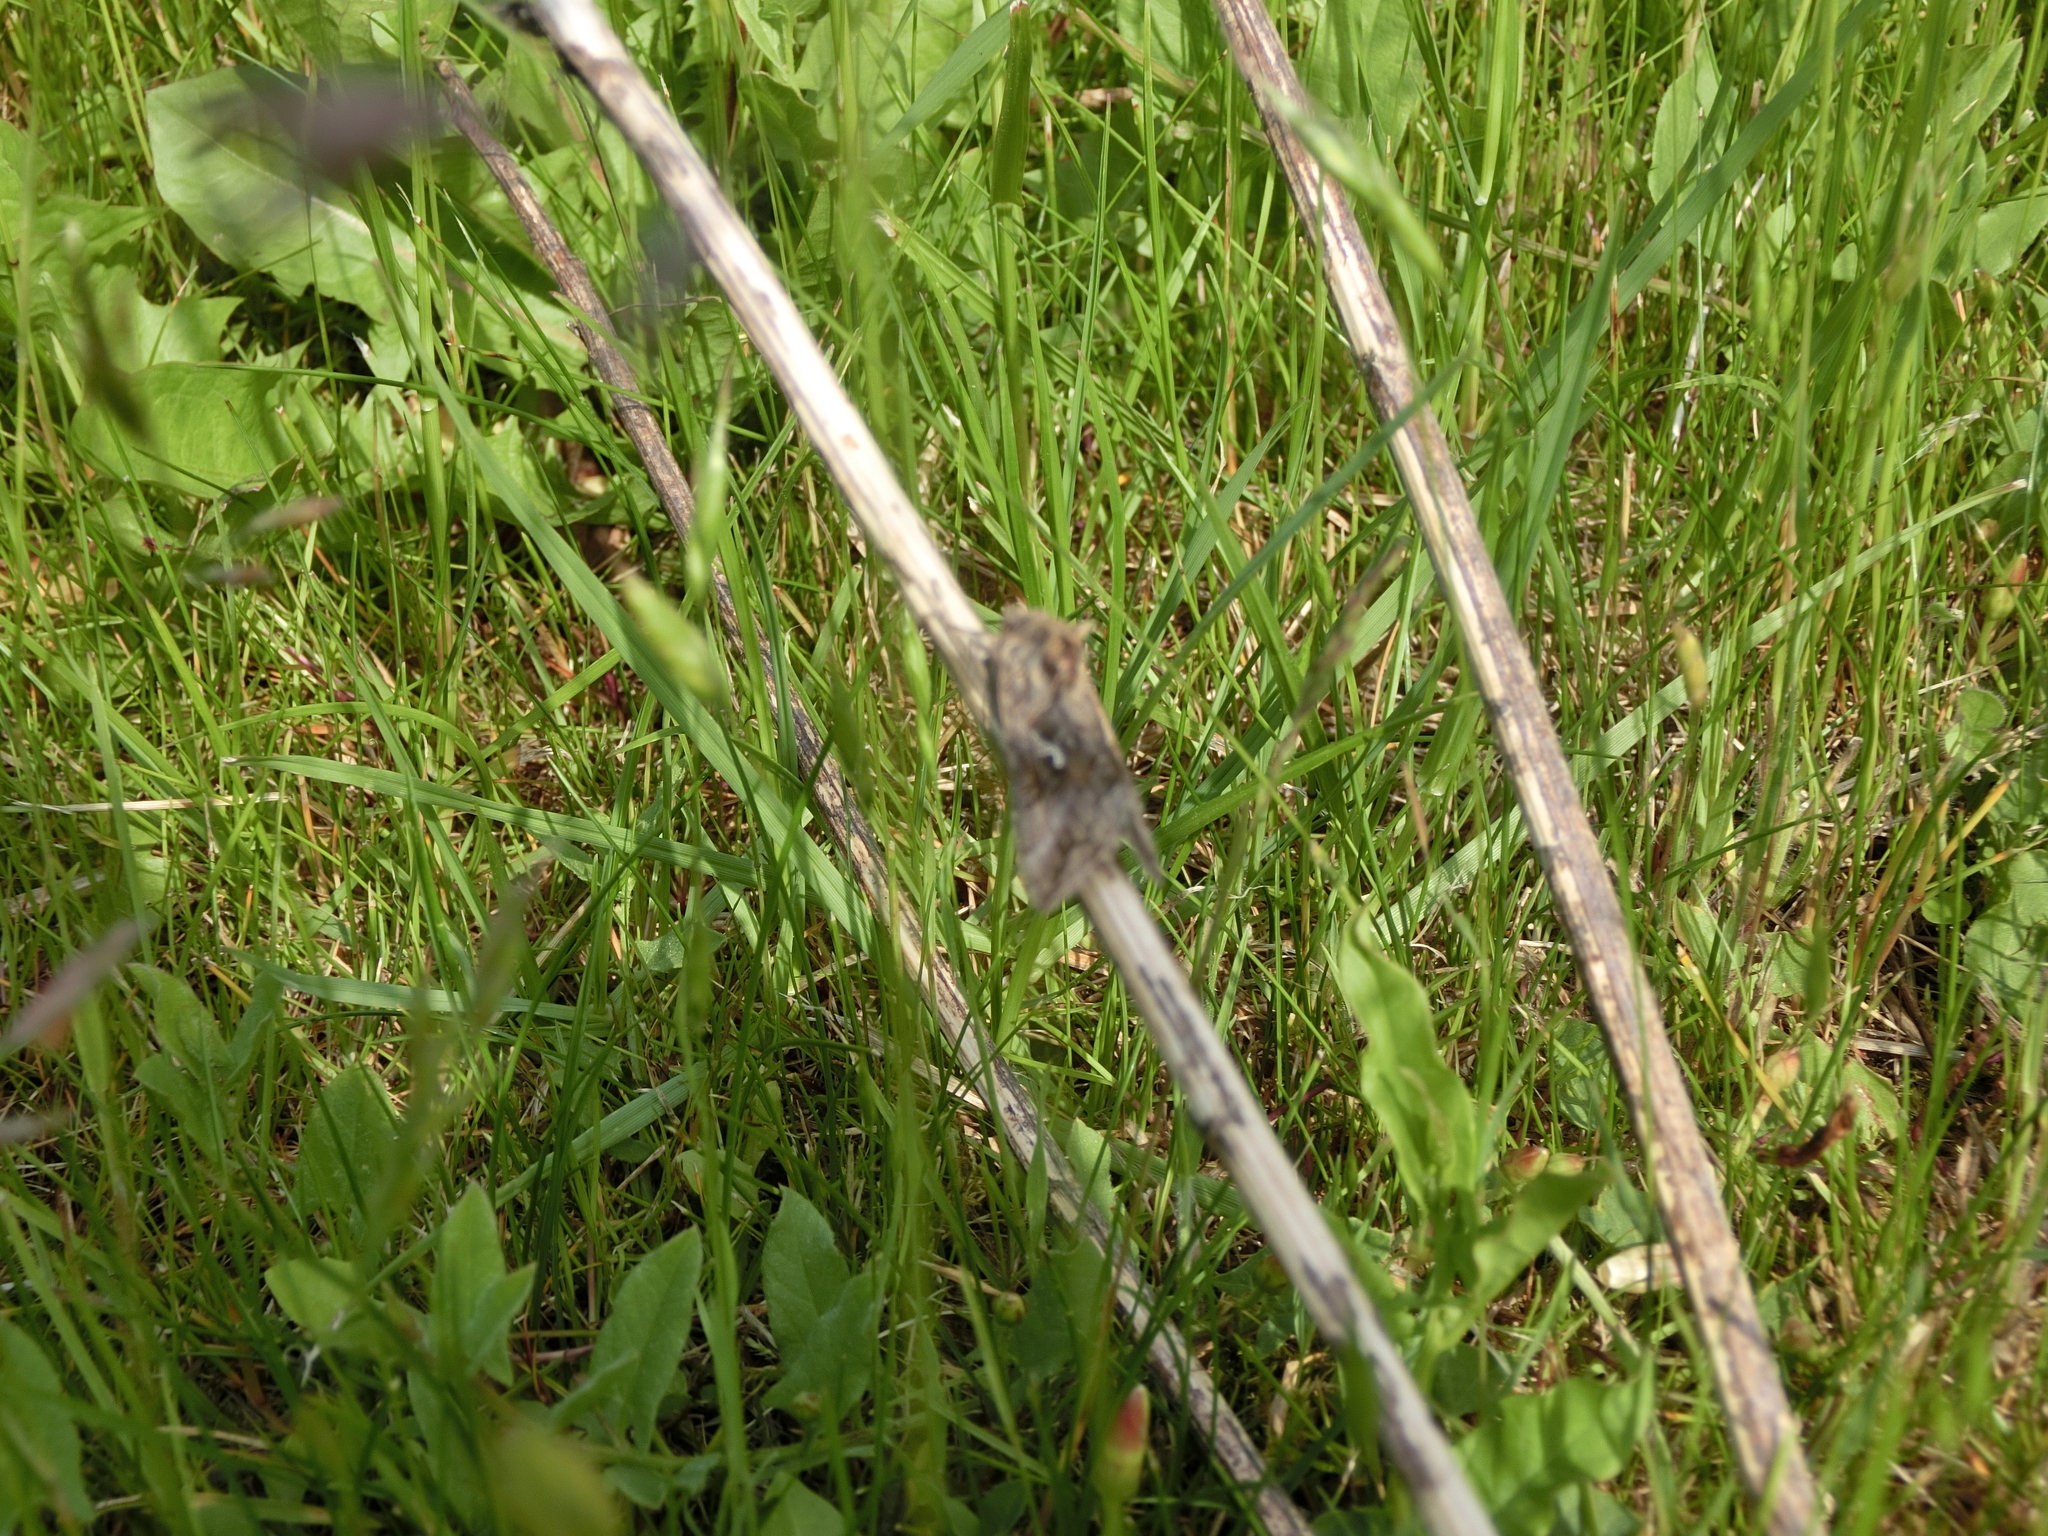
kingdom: Animalia
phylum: Arthropoda
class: Insecta
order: Lepidoptera
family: Noctuidae
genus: Autographa
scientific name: Autographa gamma
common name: Silver y
